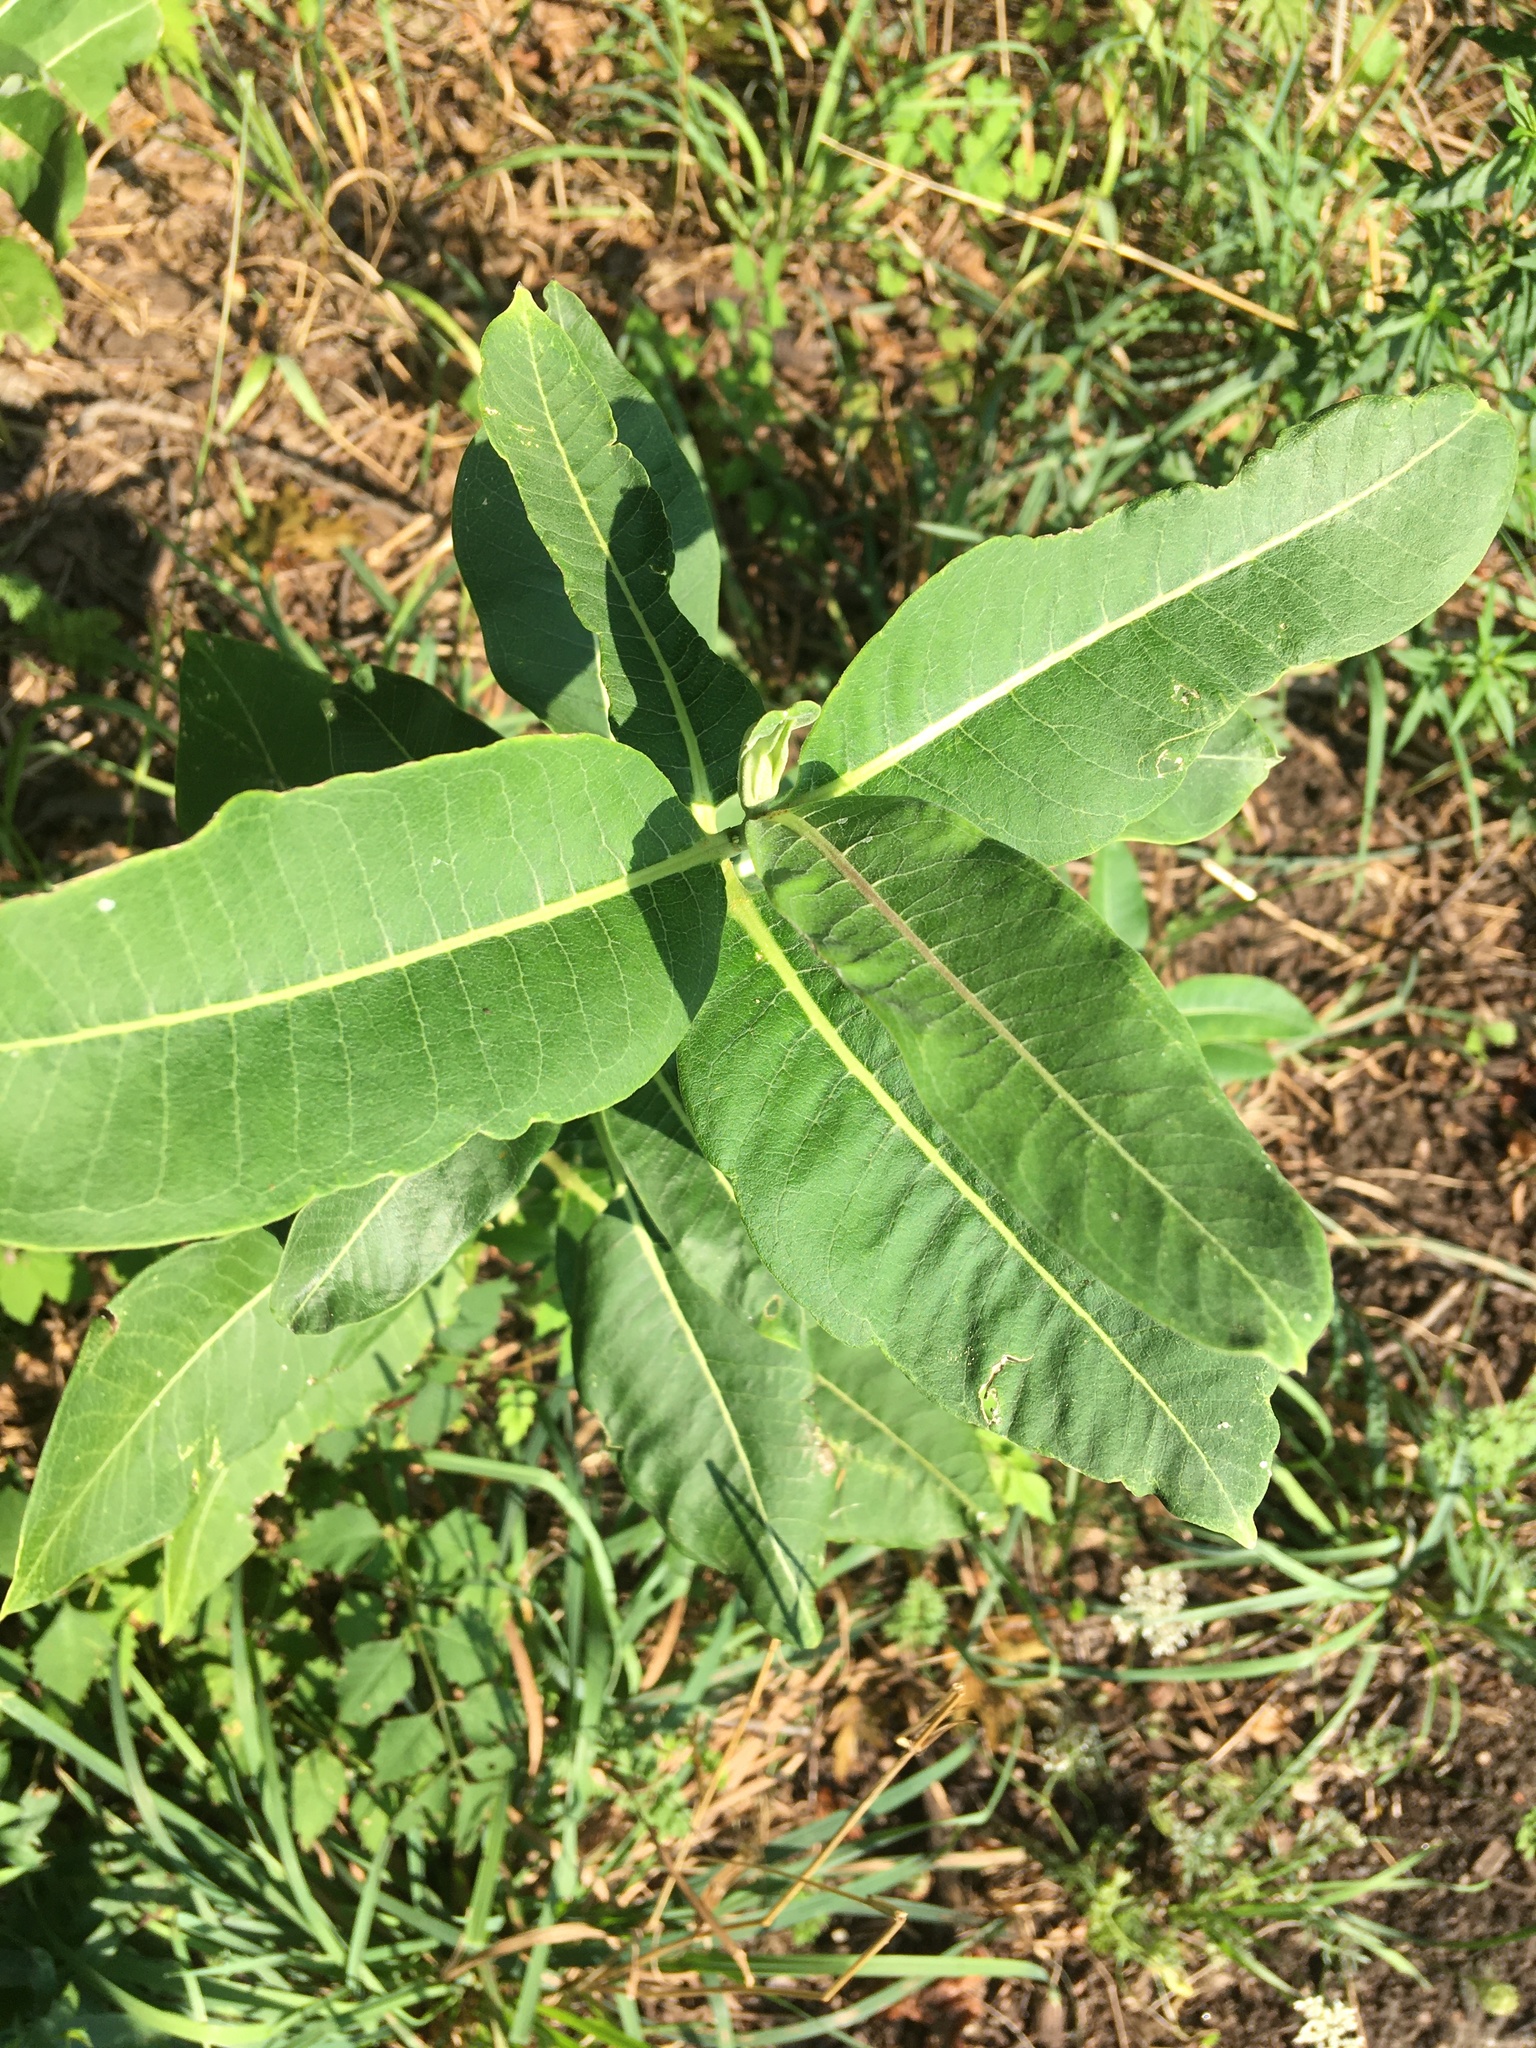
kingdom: Plantae
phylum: Tracheophyta
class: Magnoliopsida
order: Gentianales
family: Apocynaceae
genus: Asclepias
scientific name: Asclepias syriaca
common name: Common milkweed
